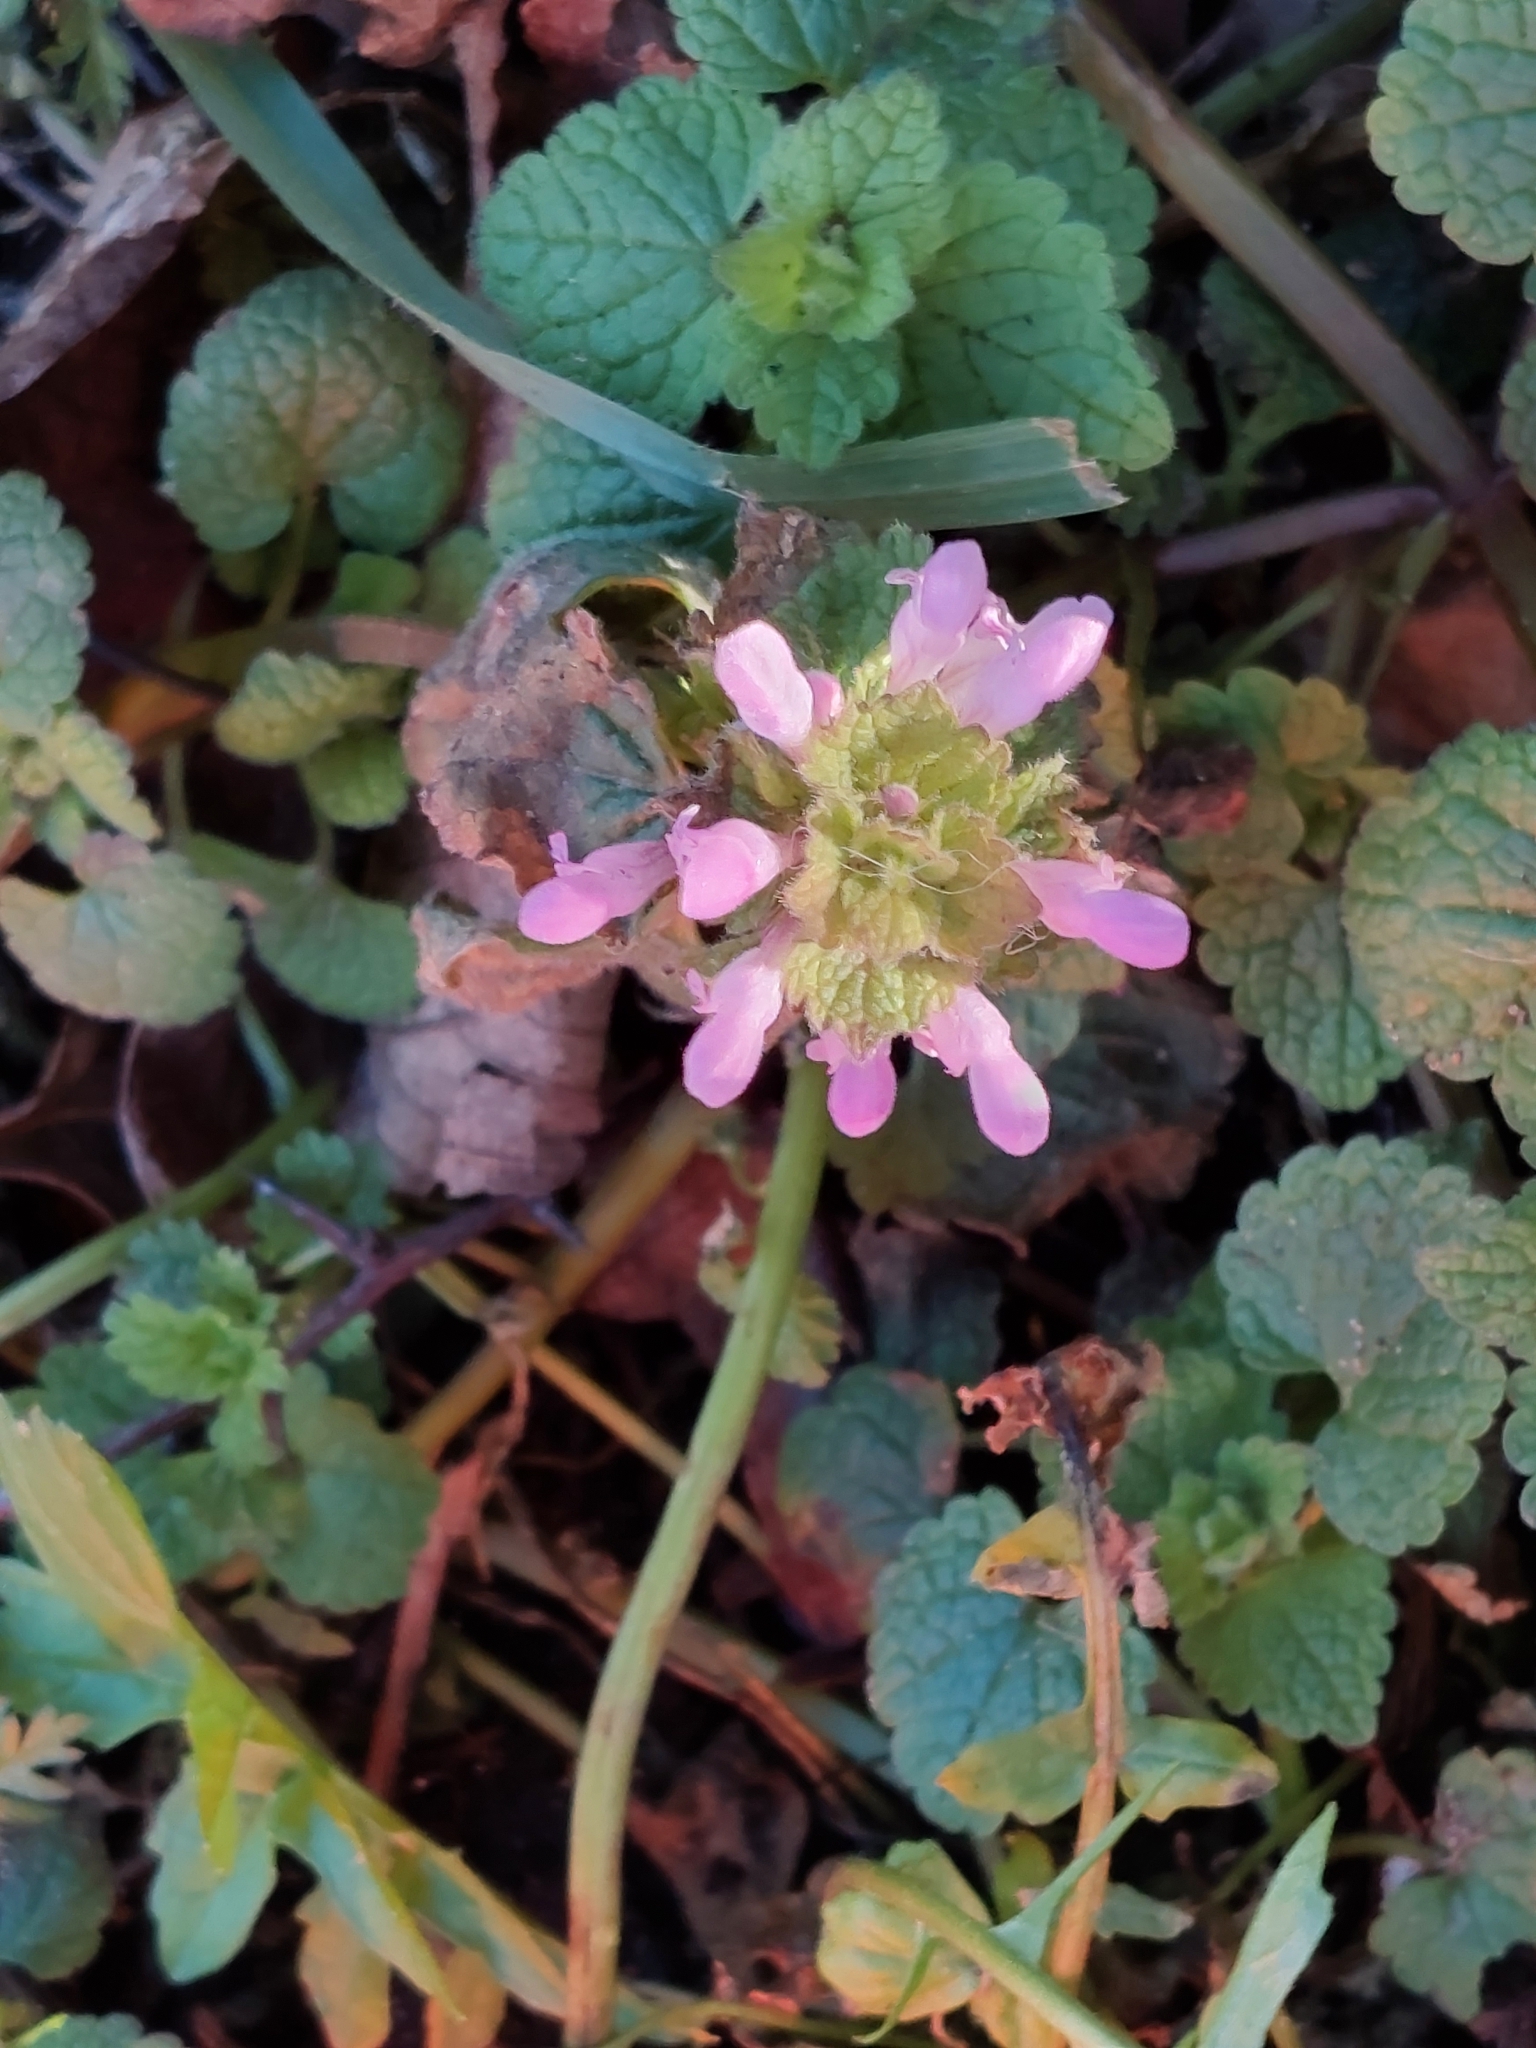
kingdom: Plantae
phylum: Tracheophyta
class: Magnoliopsida
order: Lamiales
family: Lamiaceae
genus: Lamium
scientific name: Lamium purpureum
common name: Red dead-nettle
